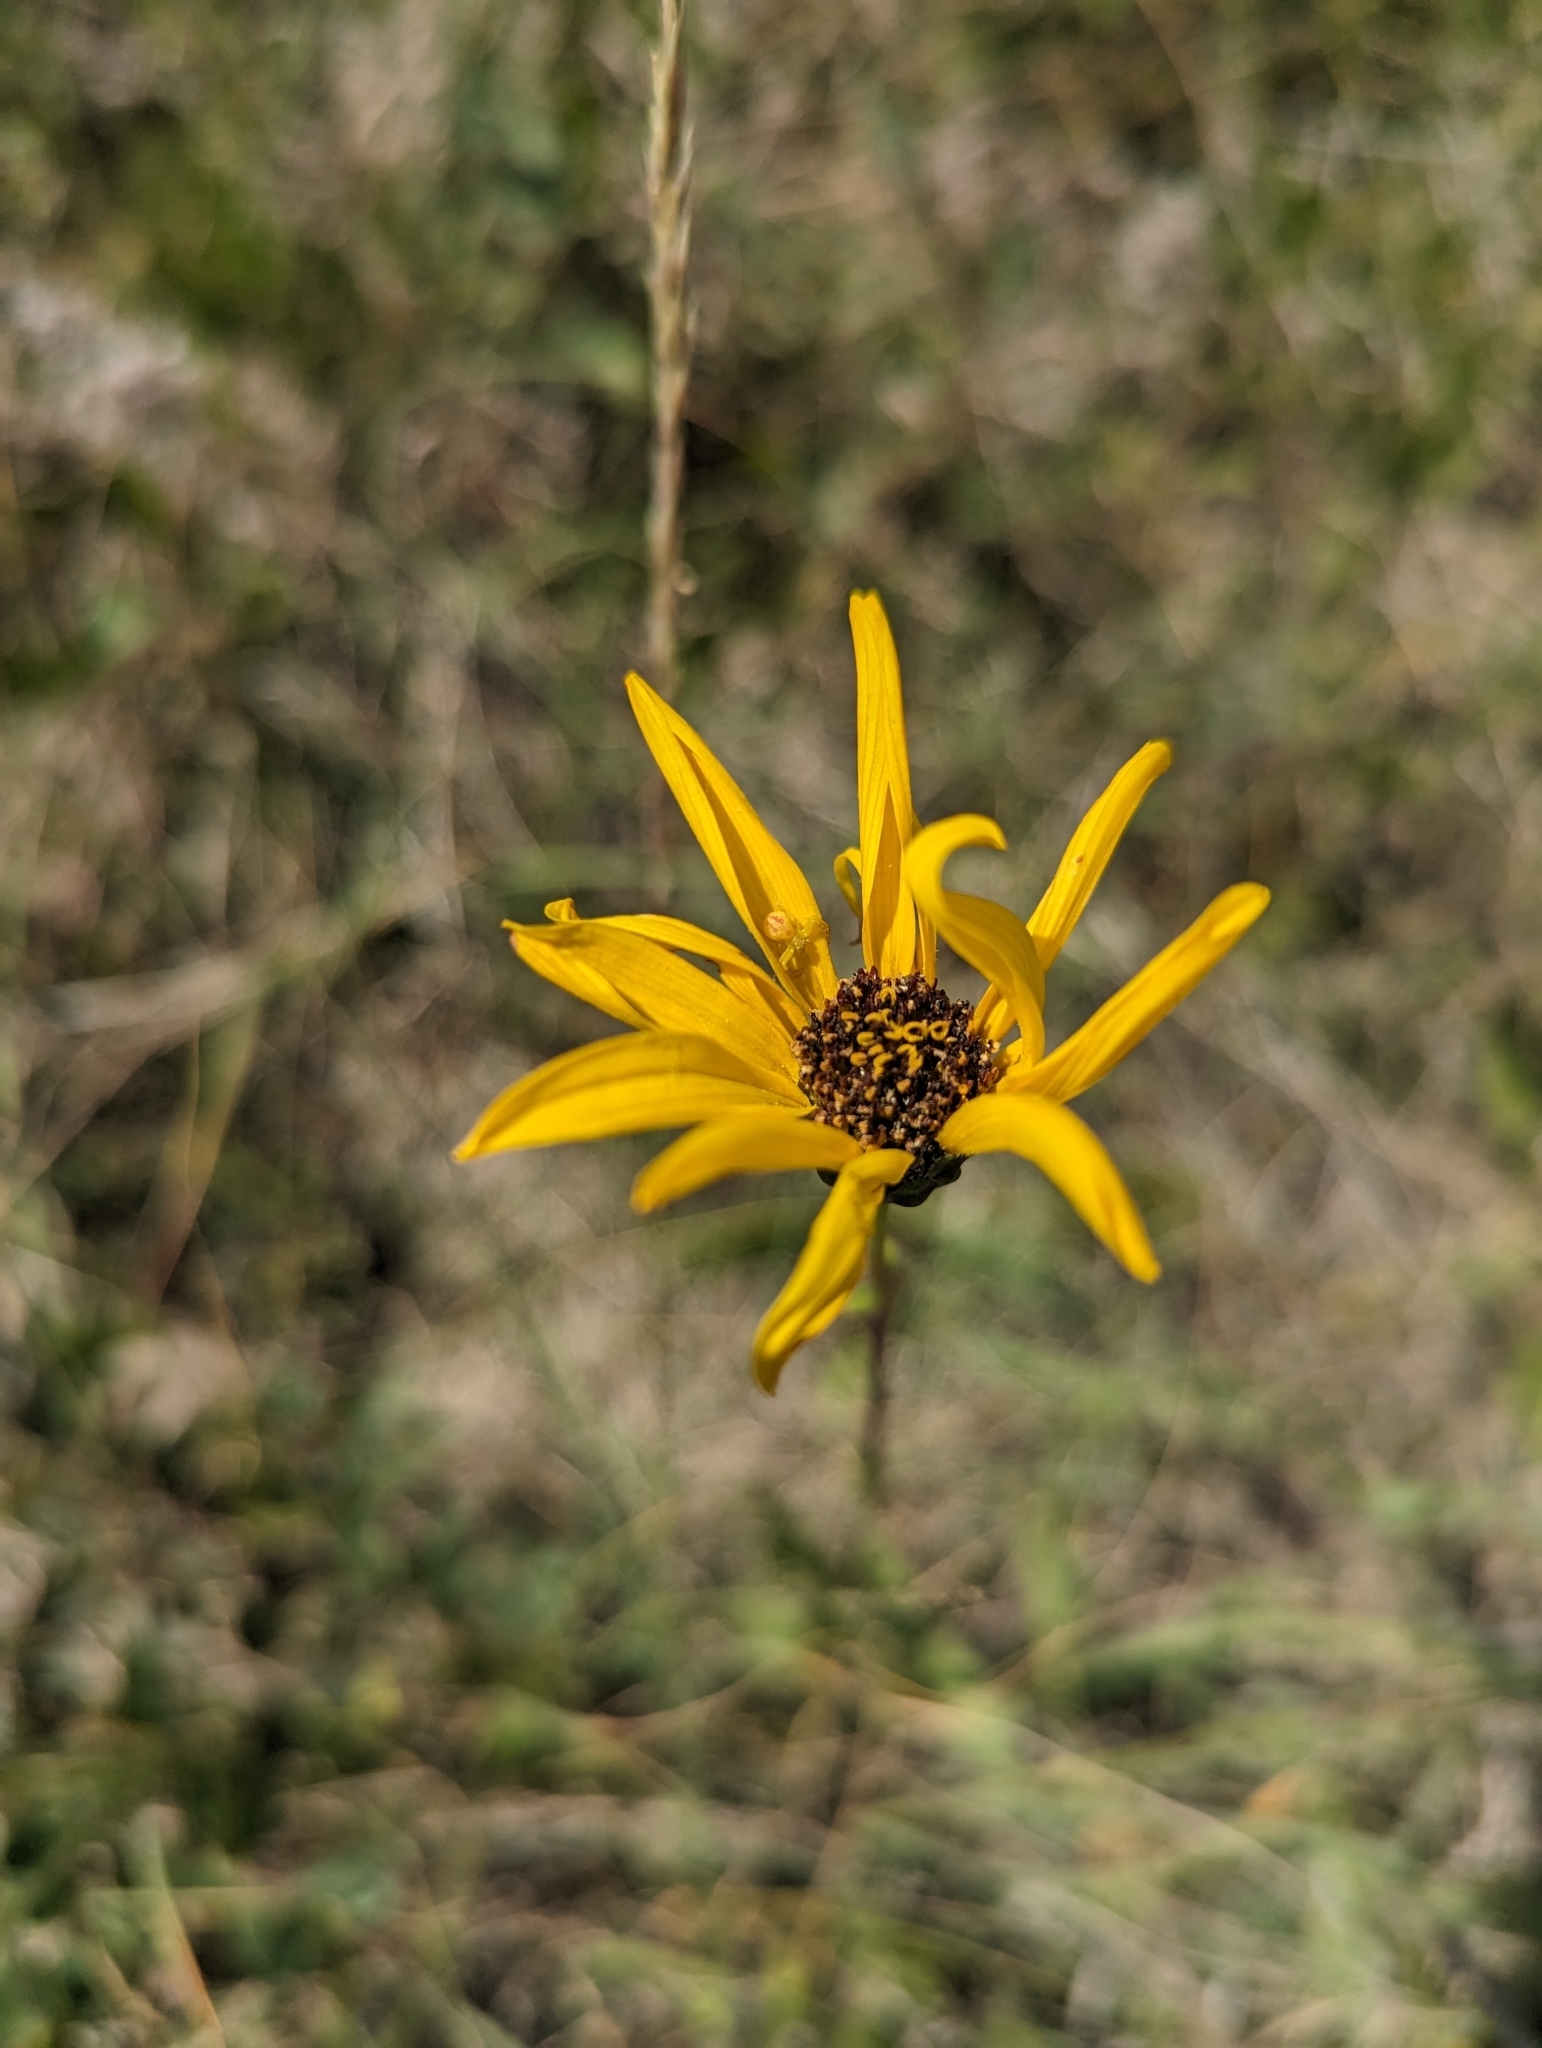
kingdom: Plantae
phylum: Tracheophyta
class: Magnoliopsida
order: Asterales
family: Asteraceae
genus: Helianthus
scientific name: Helianthus pauciflorus
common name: Stiff sunflower
